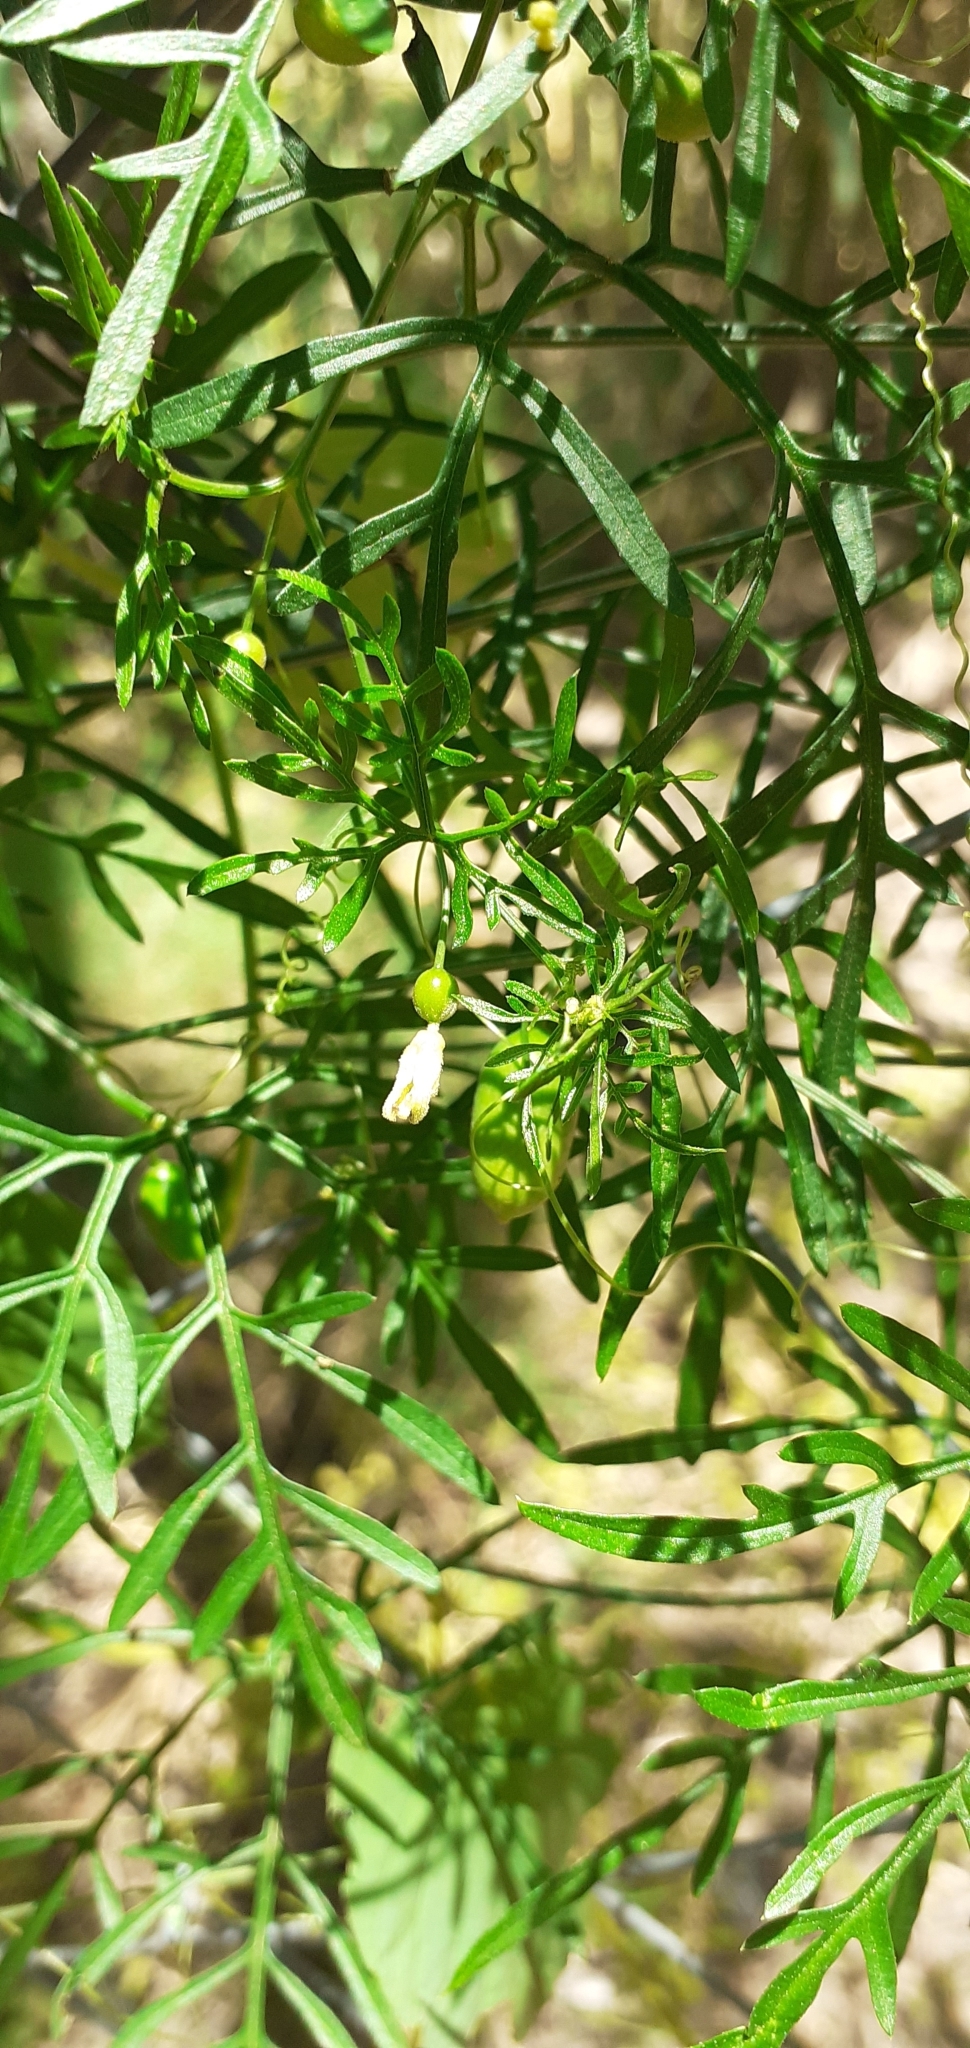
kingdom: Plantae
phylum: Tracheophyta
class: Magnoliopsida
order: Cucurbitales
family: Cucurbitaceae
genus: Abobra
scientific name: Abobra tenuifolia
